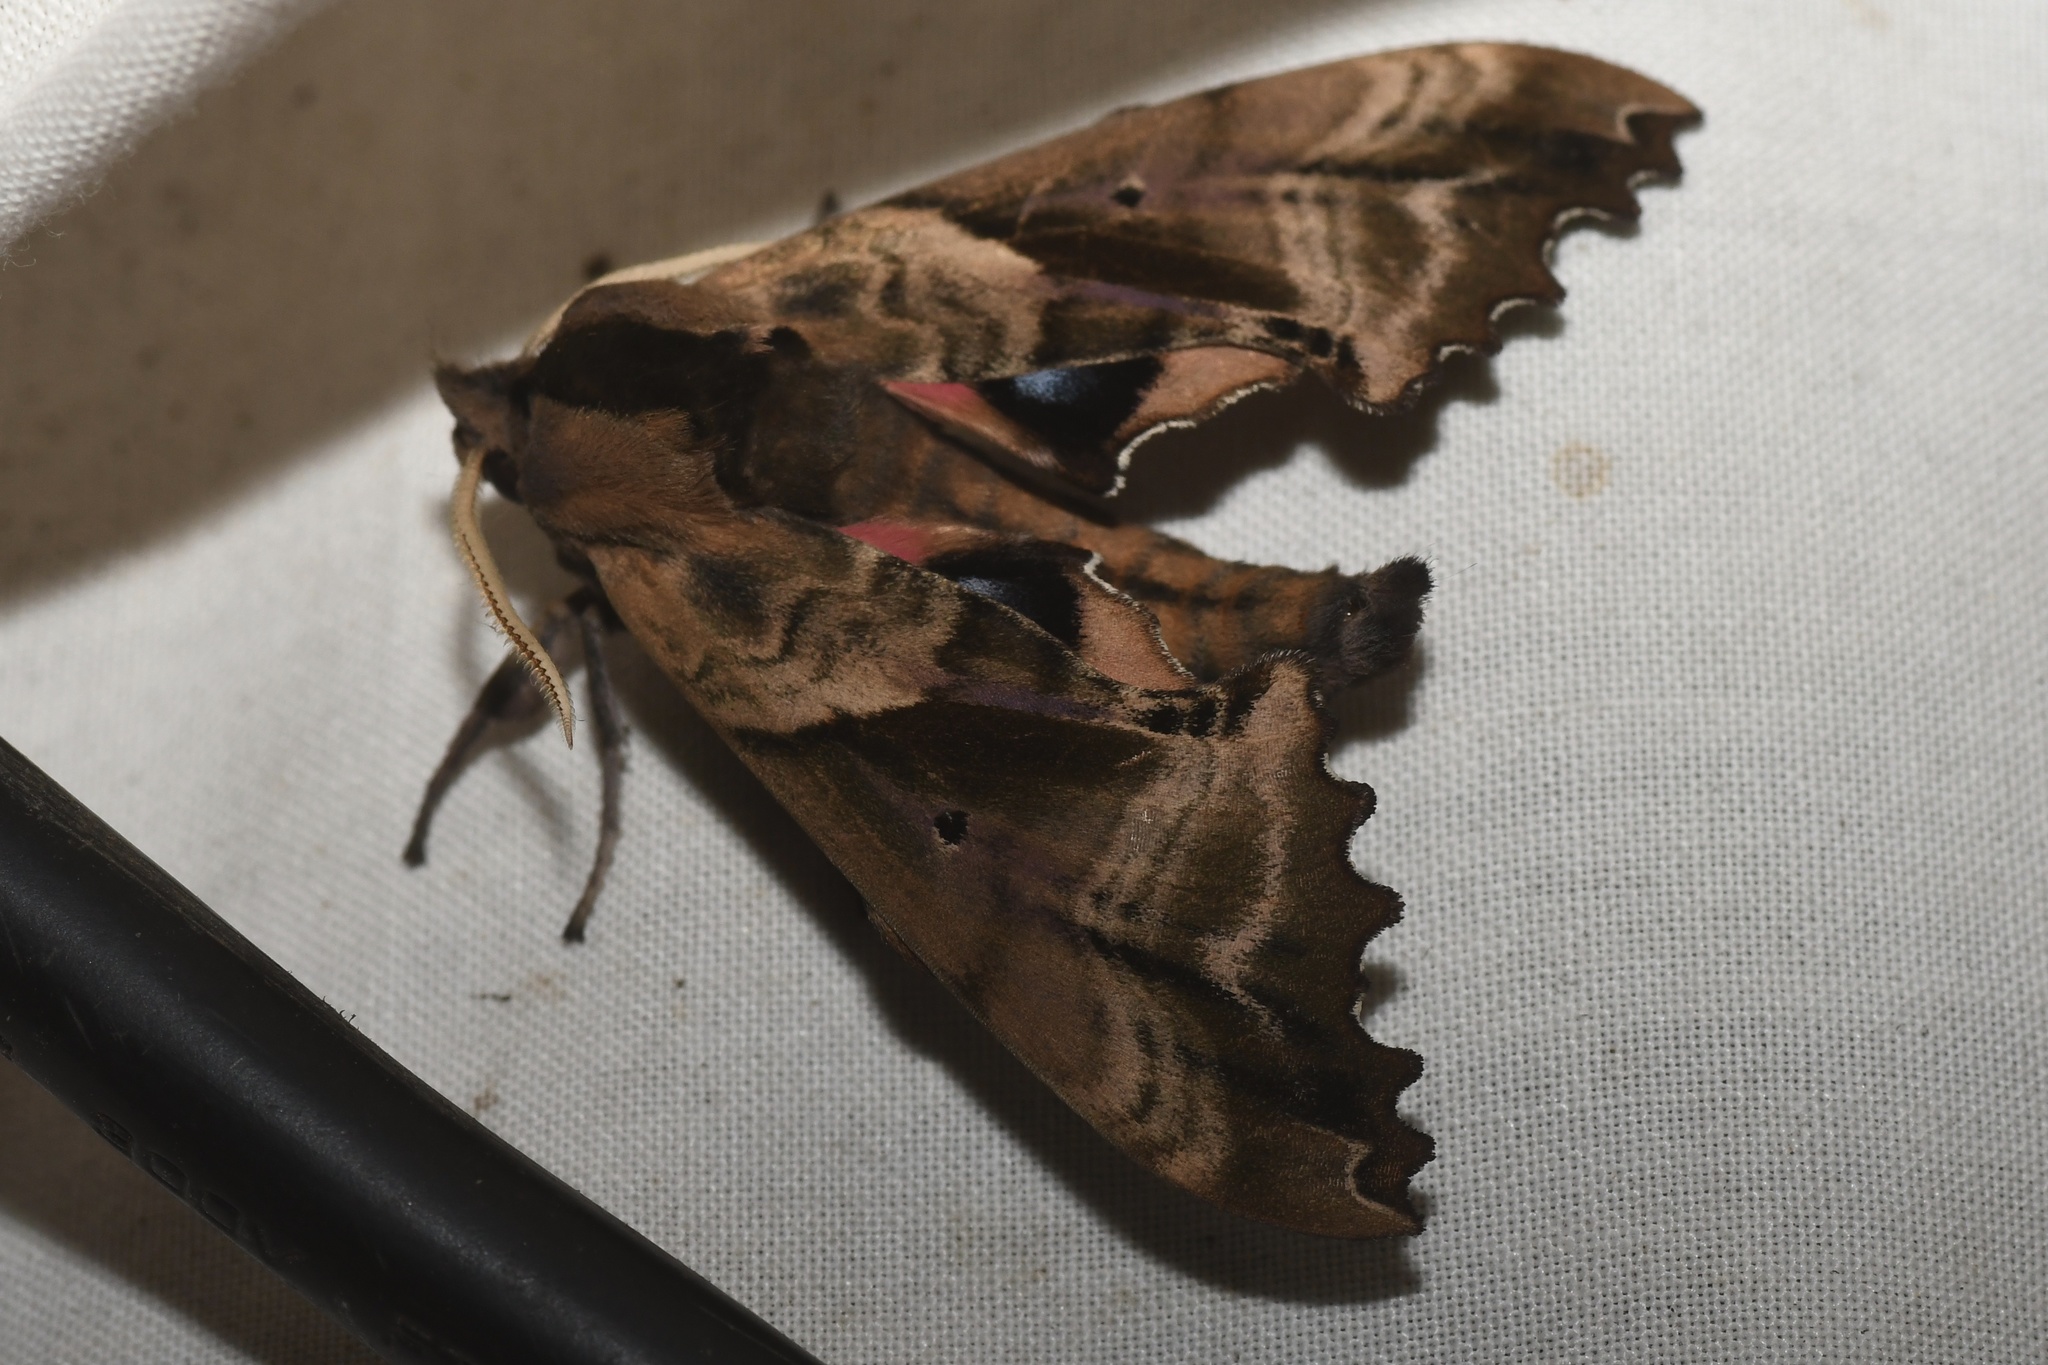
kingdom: Animalia
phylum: Arthropoda
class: Insecta
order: Lepidoptera
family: Sphingidae
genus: Paonias
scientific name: Paonias excaecata
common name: Blind-eyed sphinx
